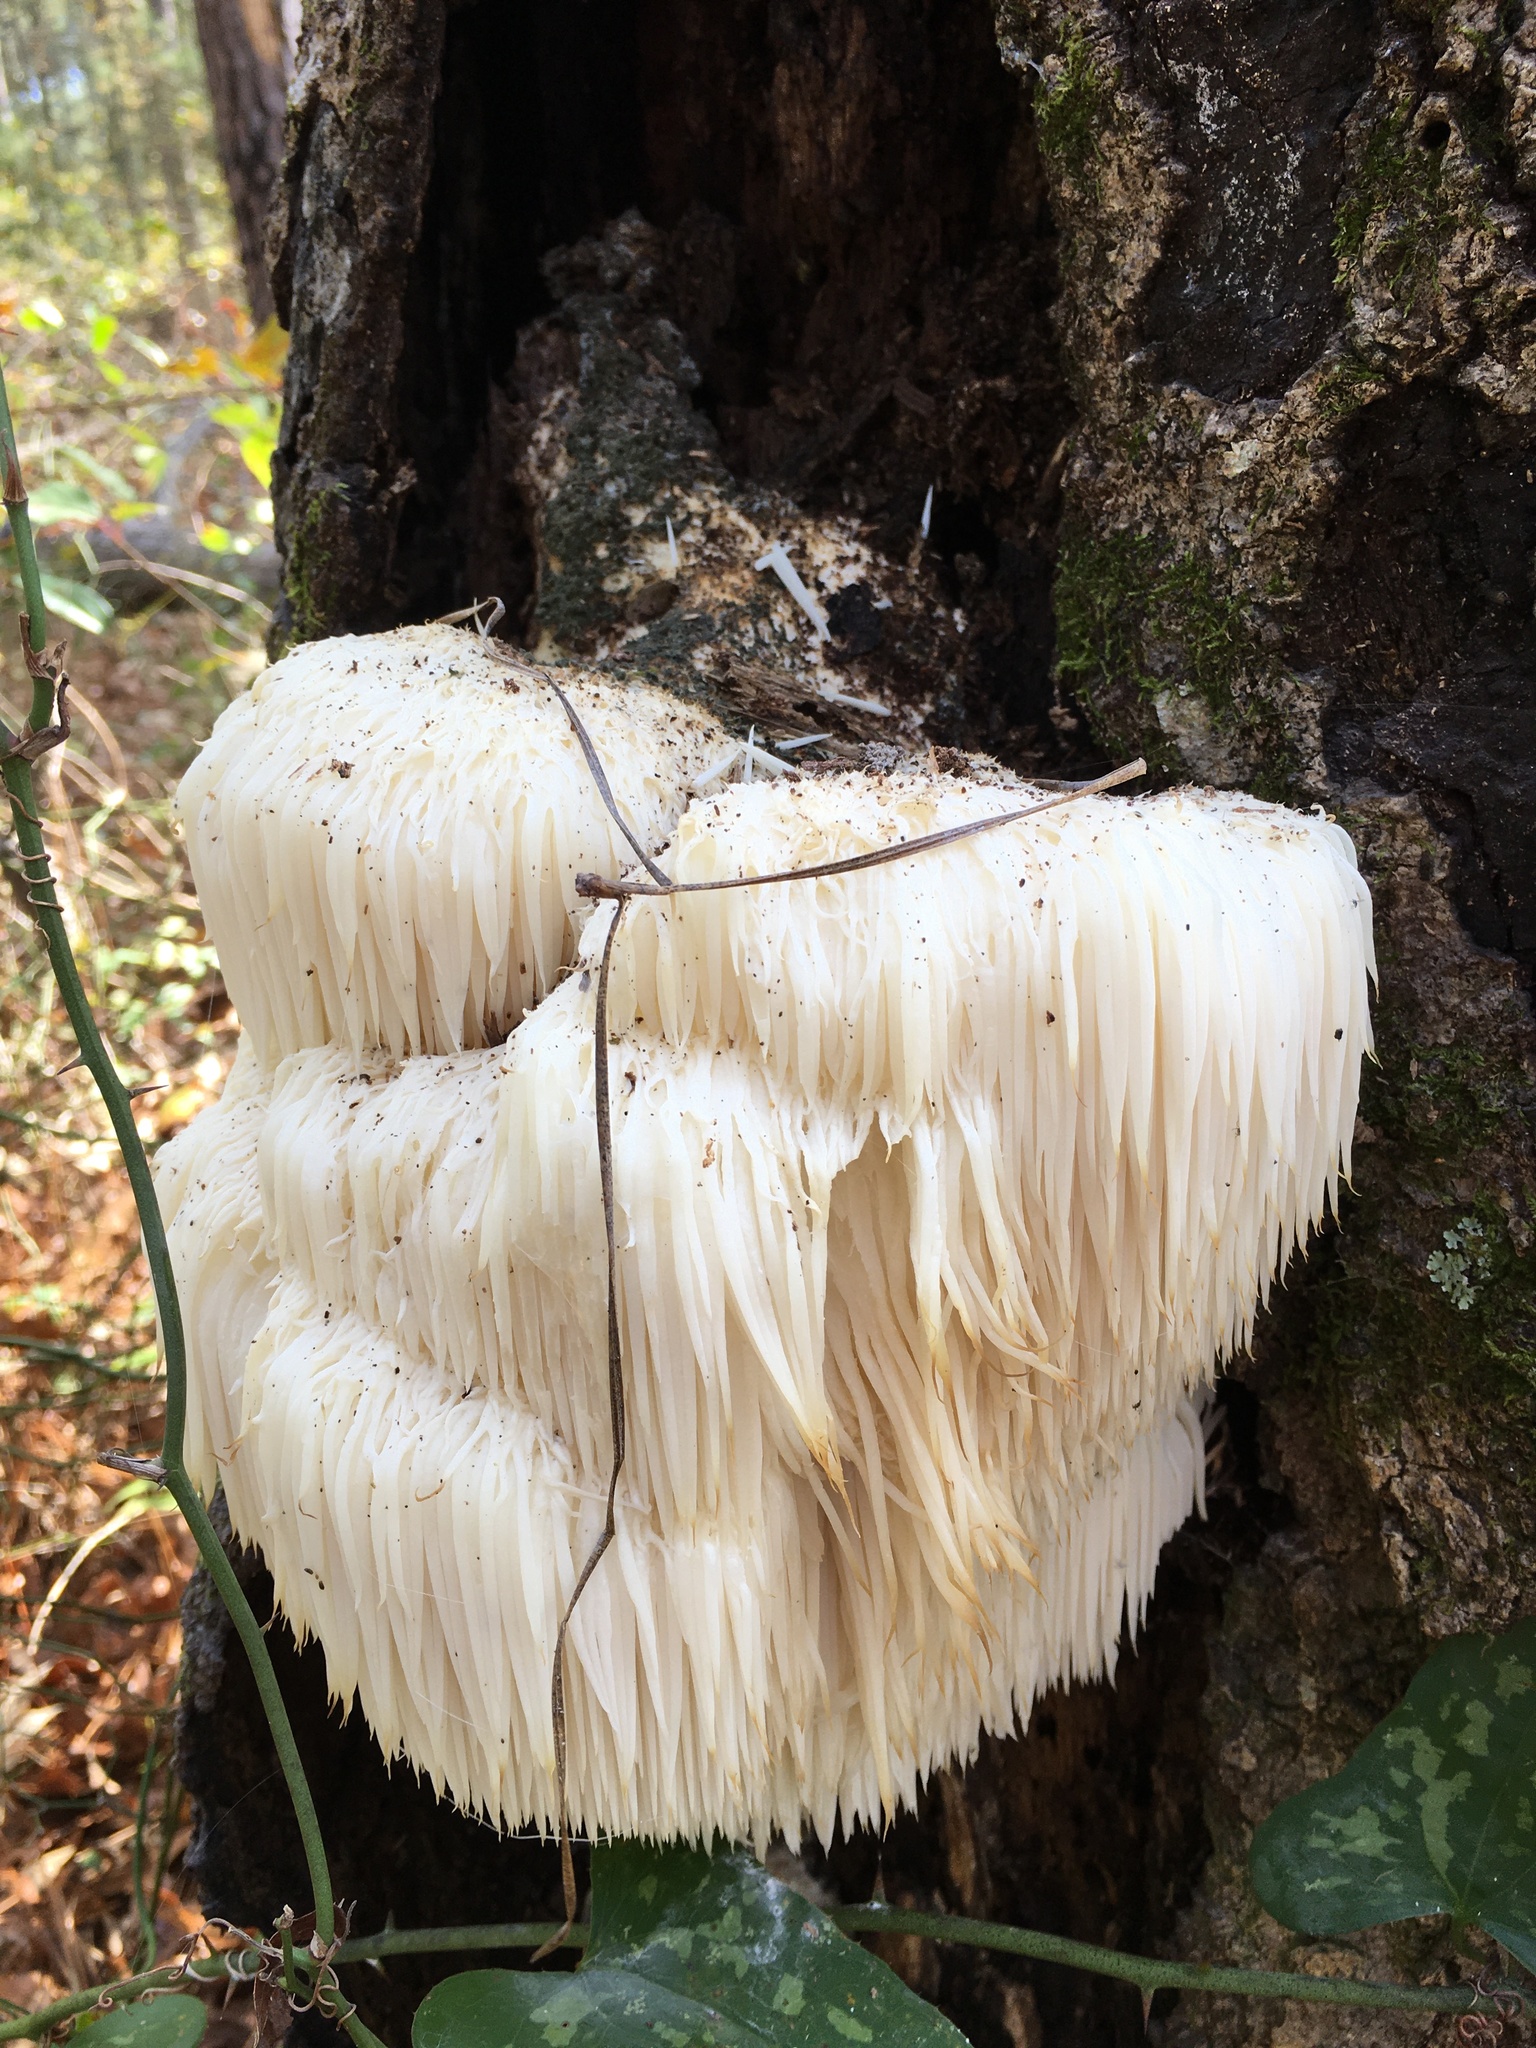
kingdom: Fungi
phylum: Basidiomycota
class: Agaricomycetes
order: Russulales
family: Hericiaceae
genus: Hericium
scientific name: Hericium erinaceus
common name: Bearded tooth
